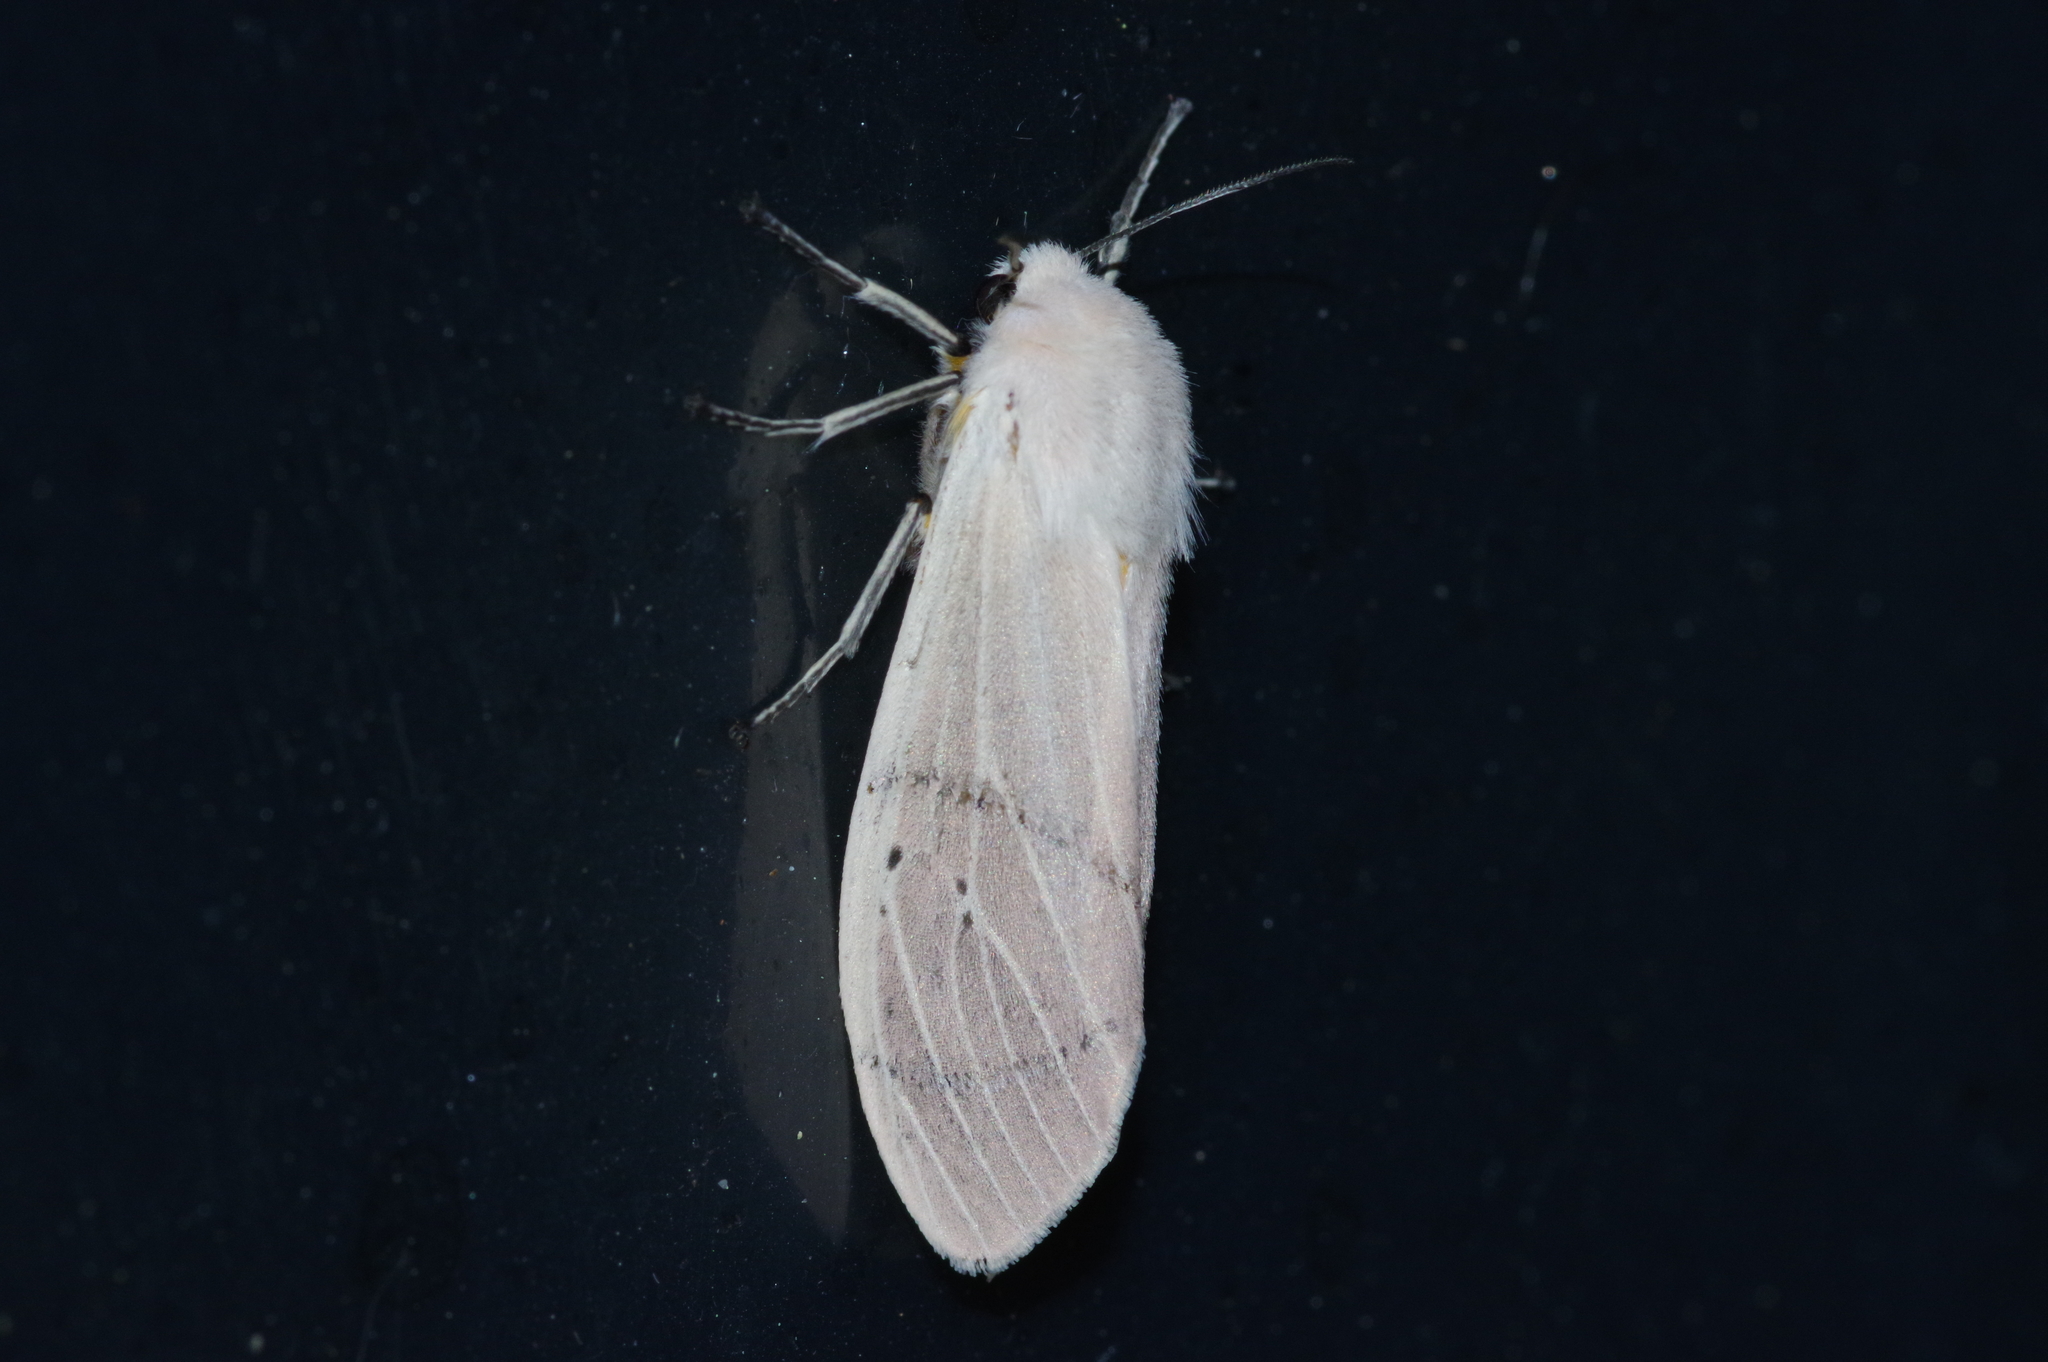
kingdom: Animalia
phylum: Arthropoda
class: Insecta
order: Lepidoptera
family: Erebidae
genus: Creatonotos
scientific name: Creatonotos transiens
